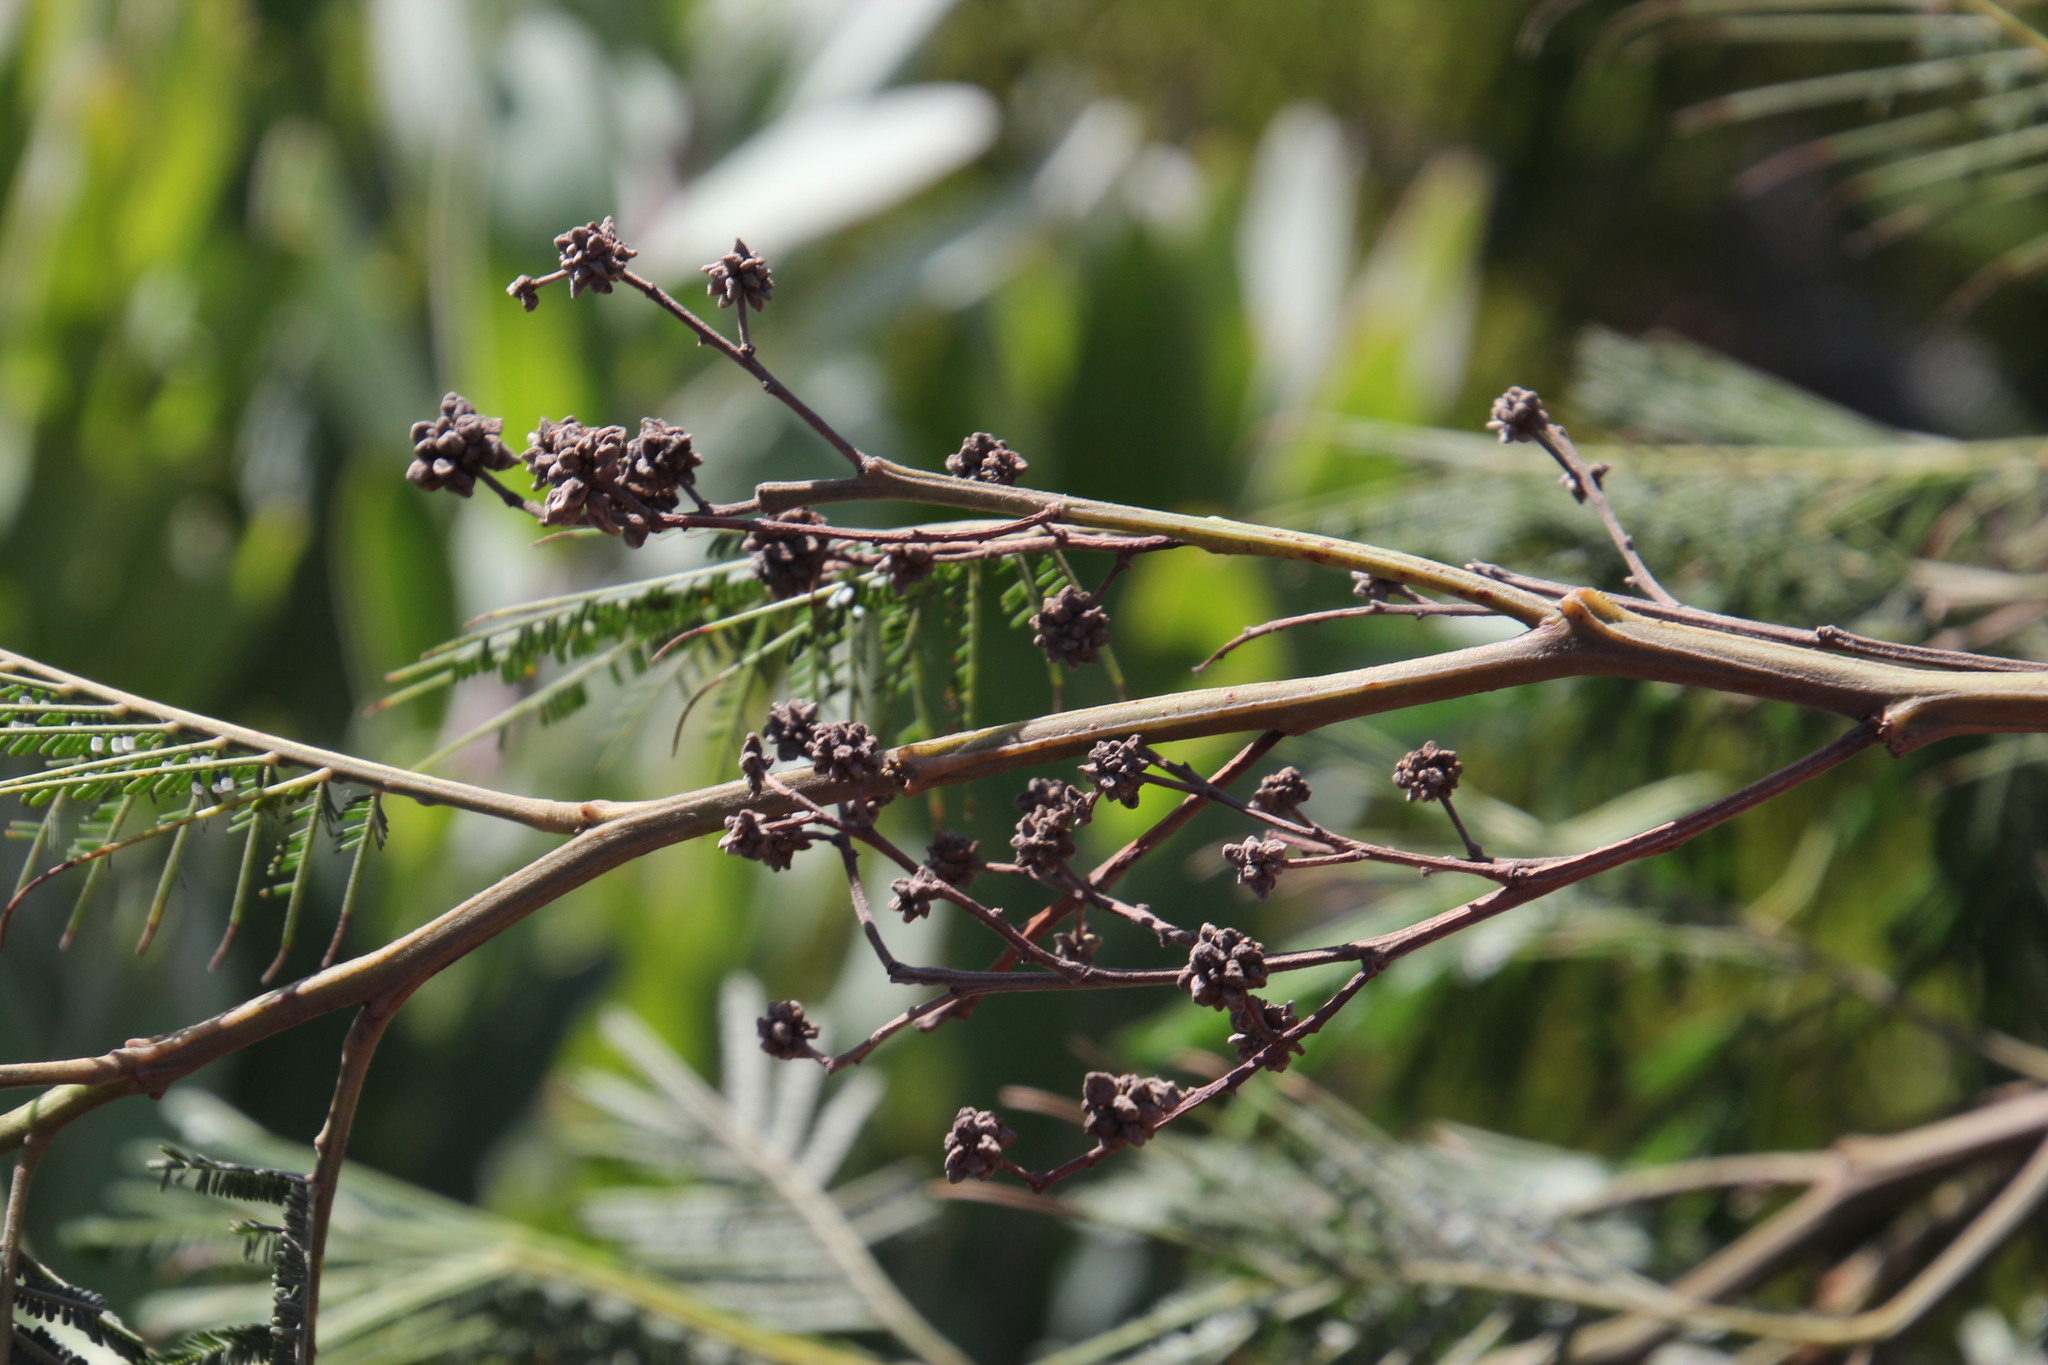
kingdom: Plantae
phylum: Tracheophyta
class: Magnoliopsida
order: Fabales
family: Fabaceae
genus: Acacia
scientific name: Acacia mearnsii
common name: Black wattle
